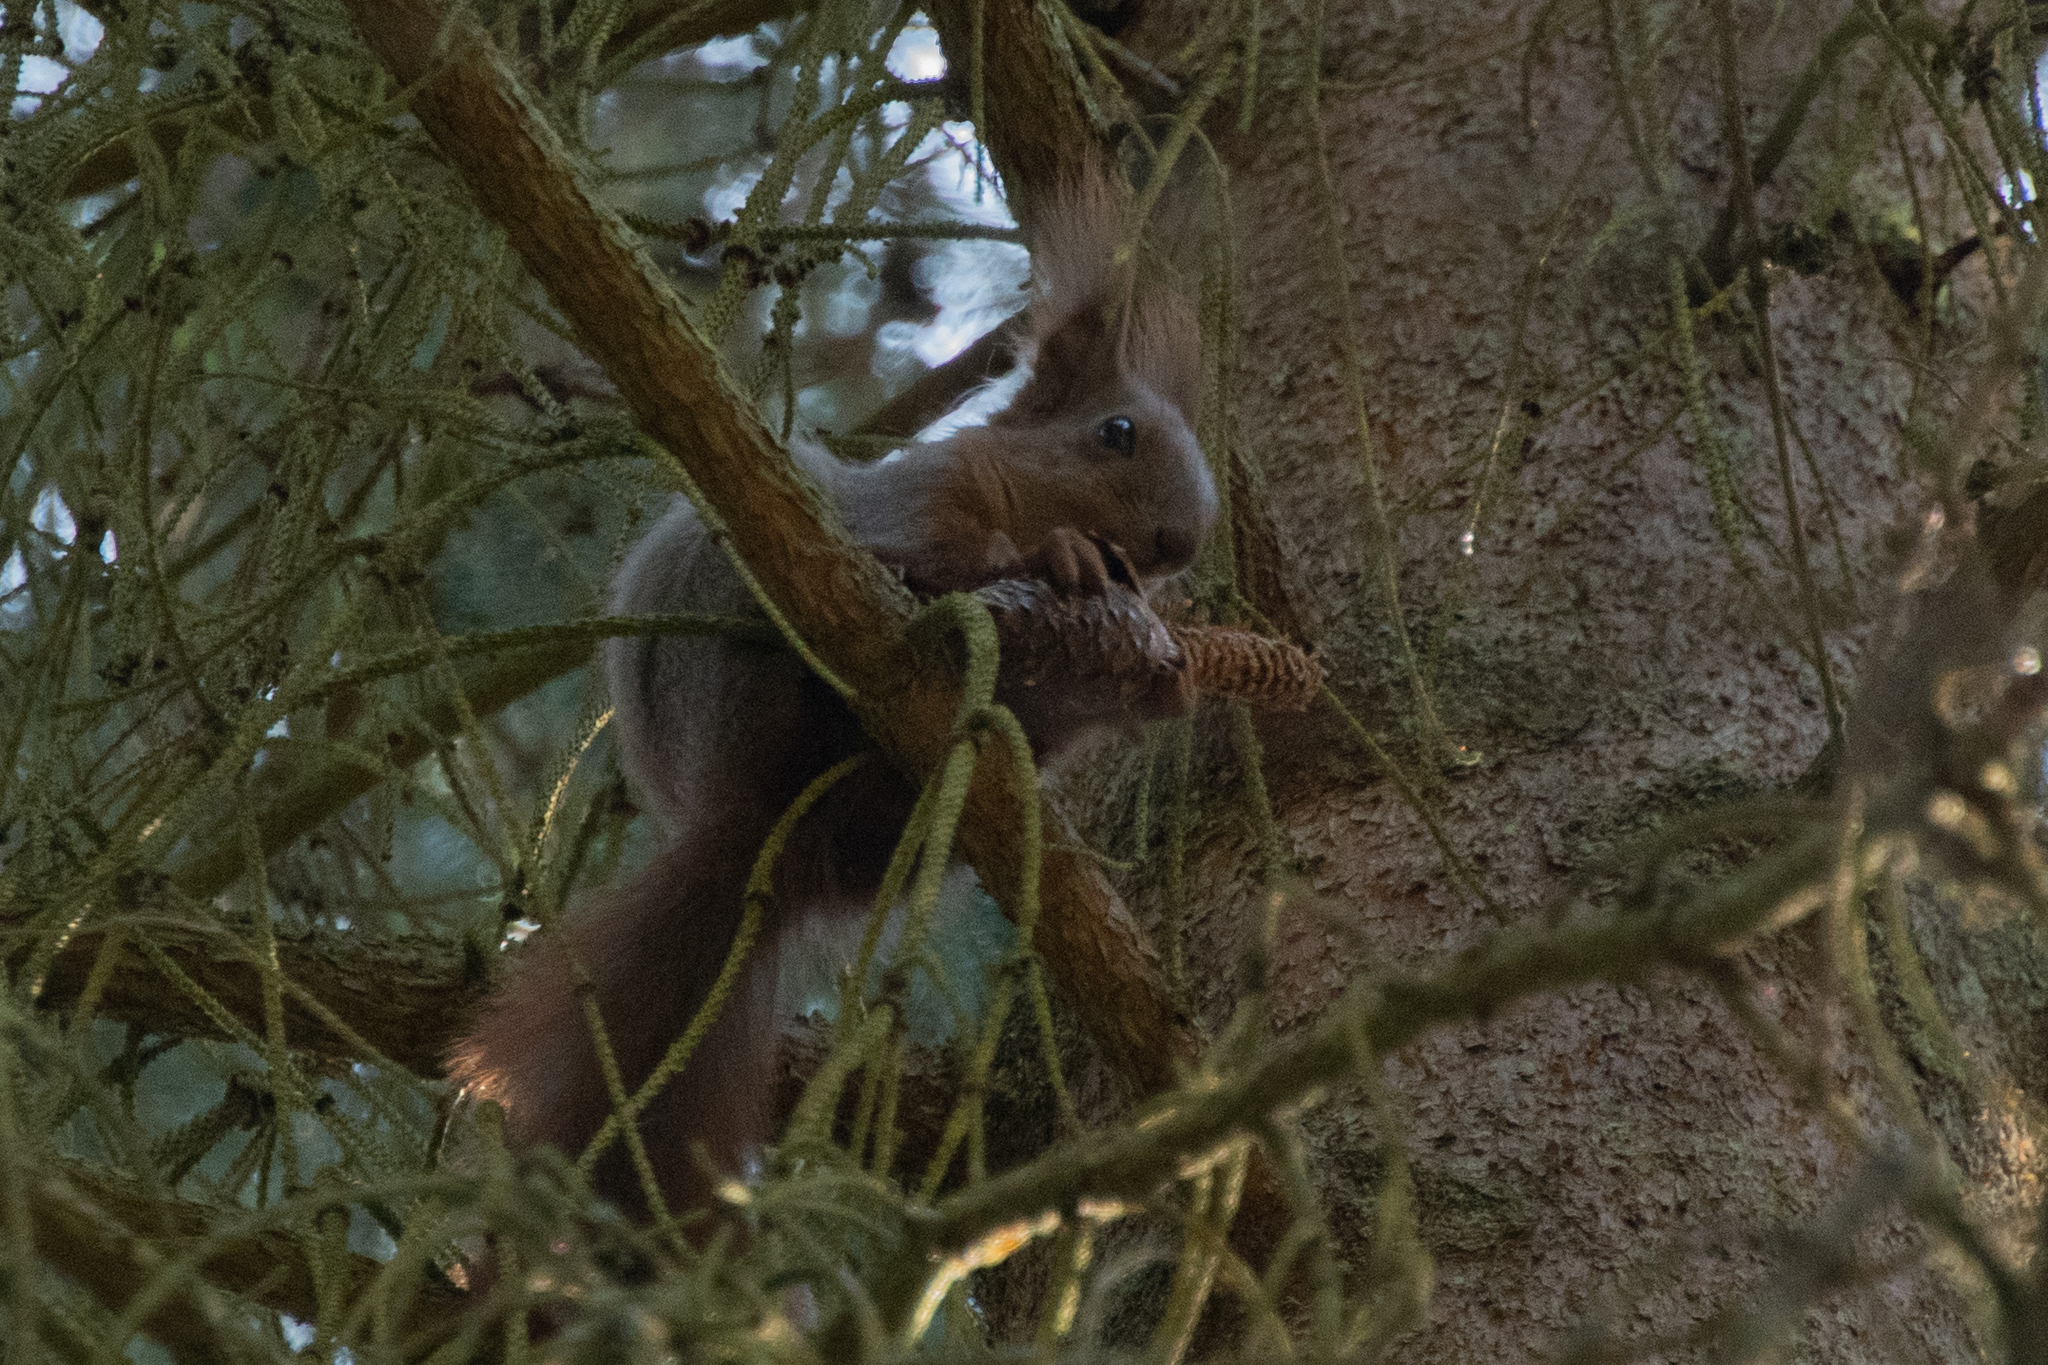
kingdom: Animalia
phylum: Chordata
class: Mammalia
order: Rodentia
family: Sciuridae
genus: Sciurus
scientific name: Sciurus vulgaris
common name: Eurasian red squirrel
